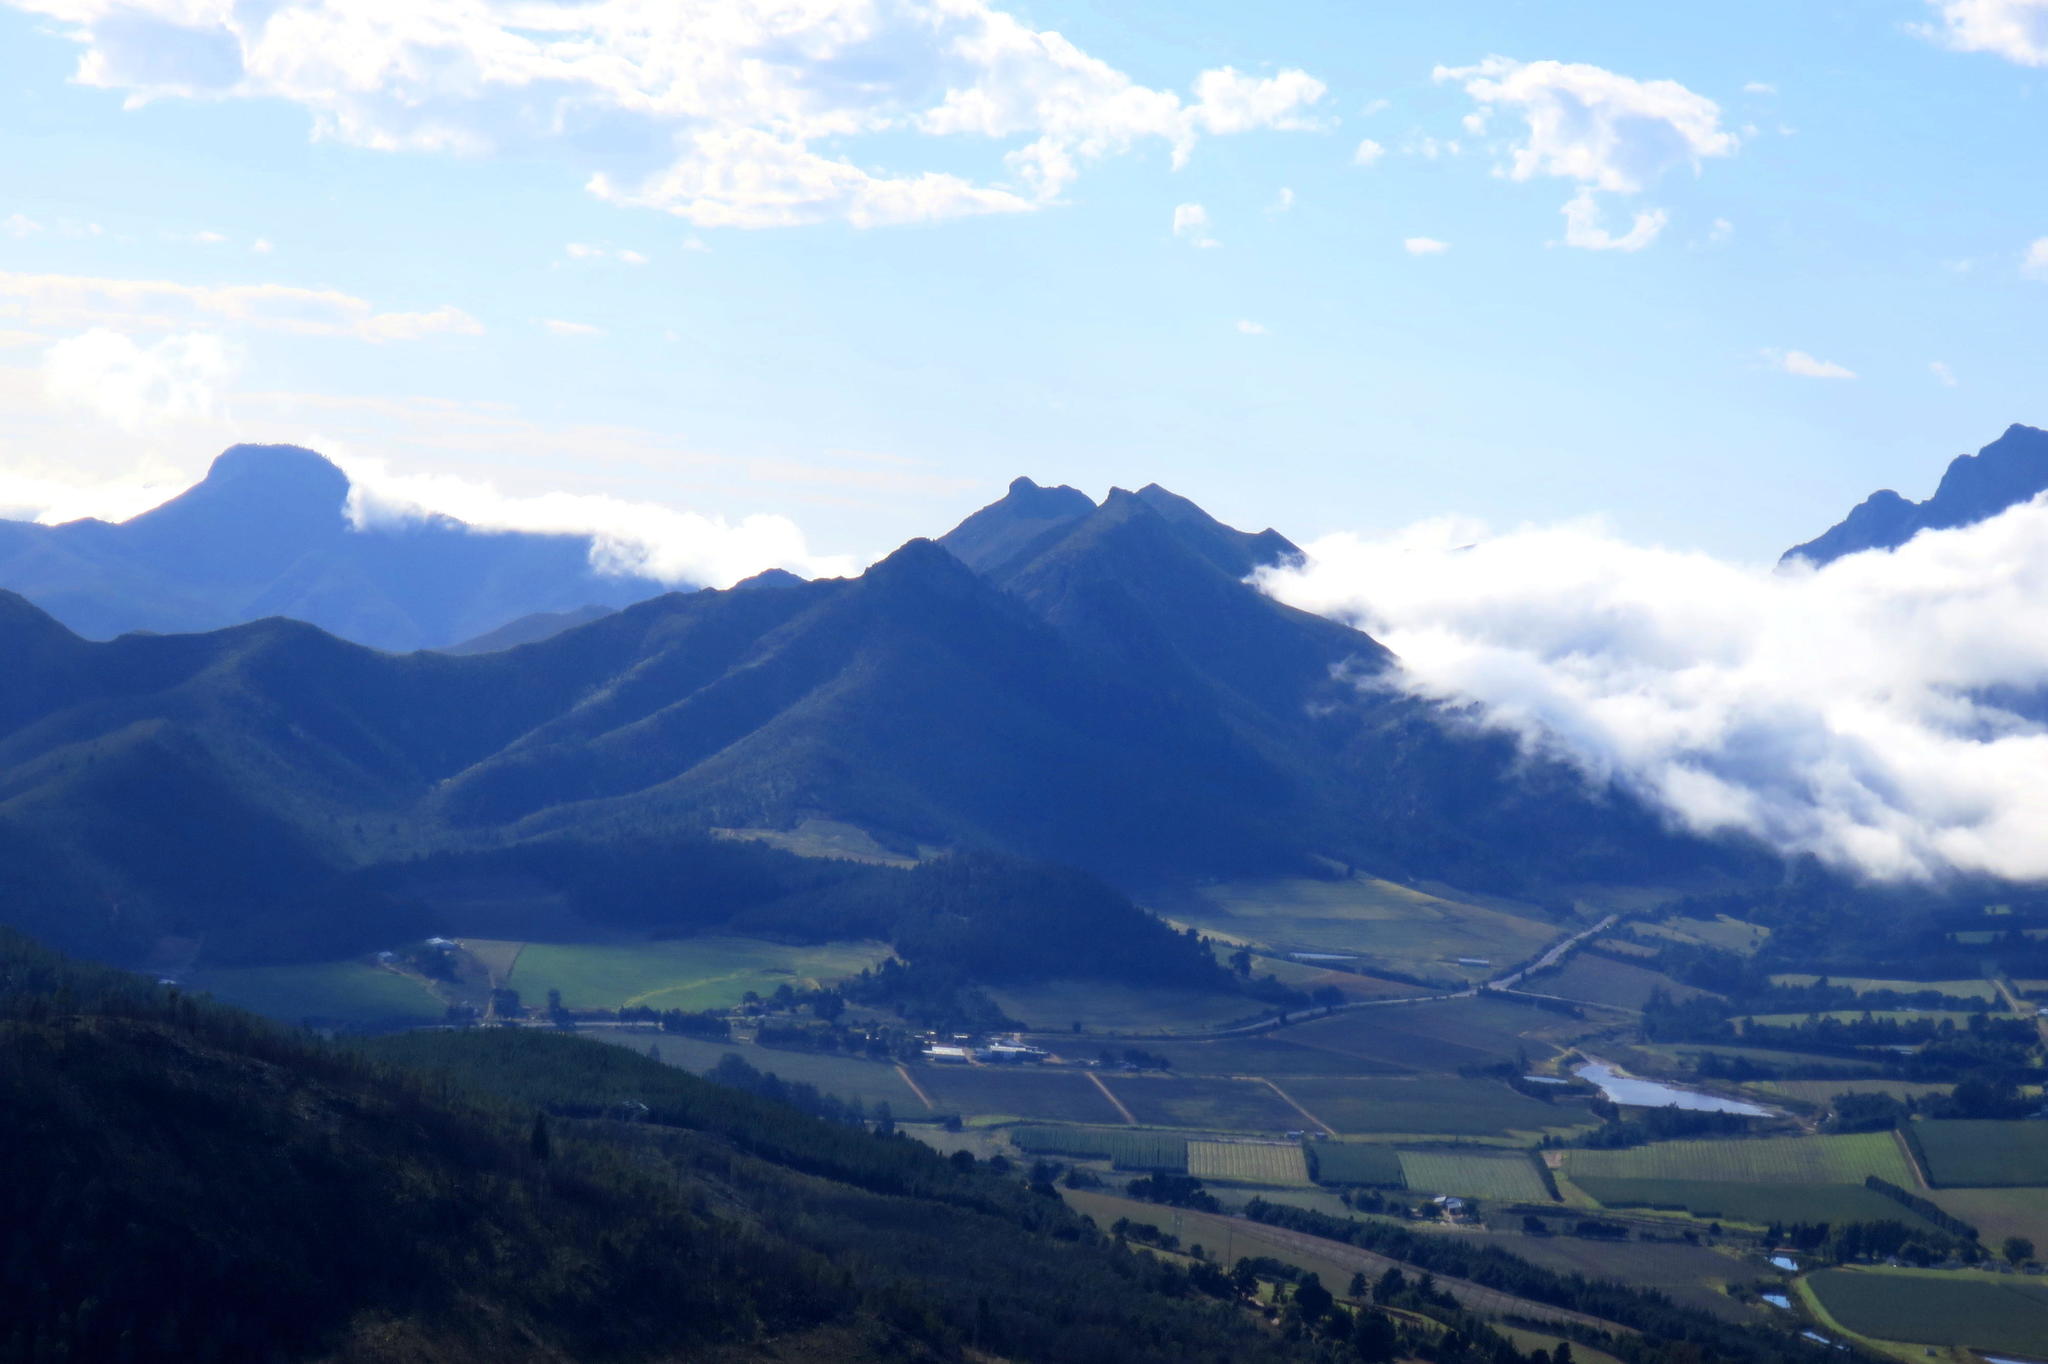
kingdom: Plantae
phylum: Tracheophyta
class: Pinopsida
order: Pinales
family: Pinaceae
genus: Pinus
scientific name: Pinus pinaster
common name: Maritime pine
